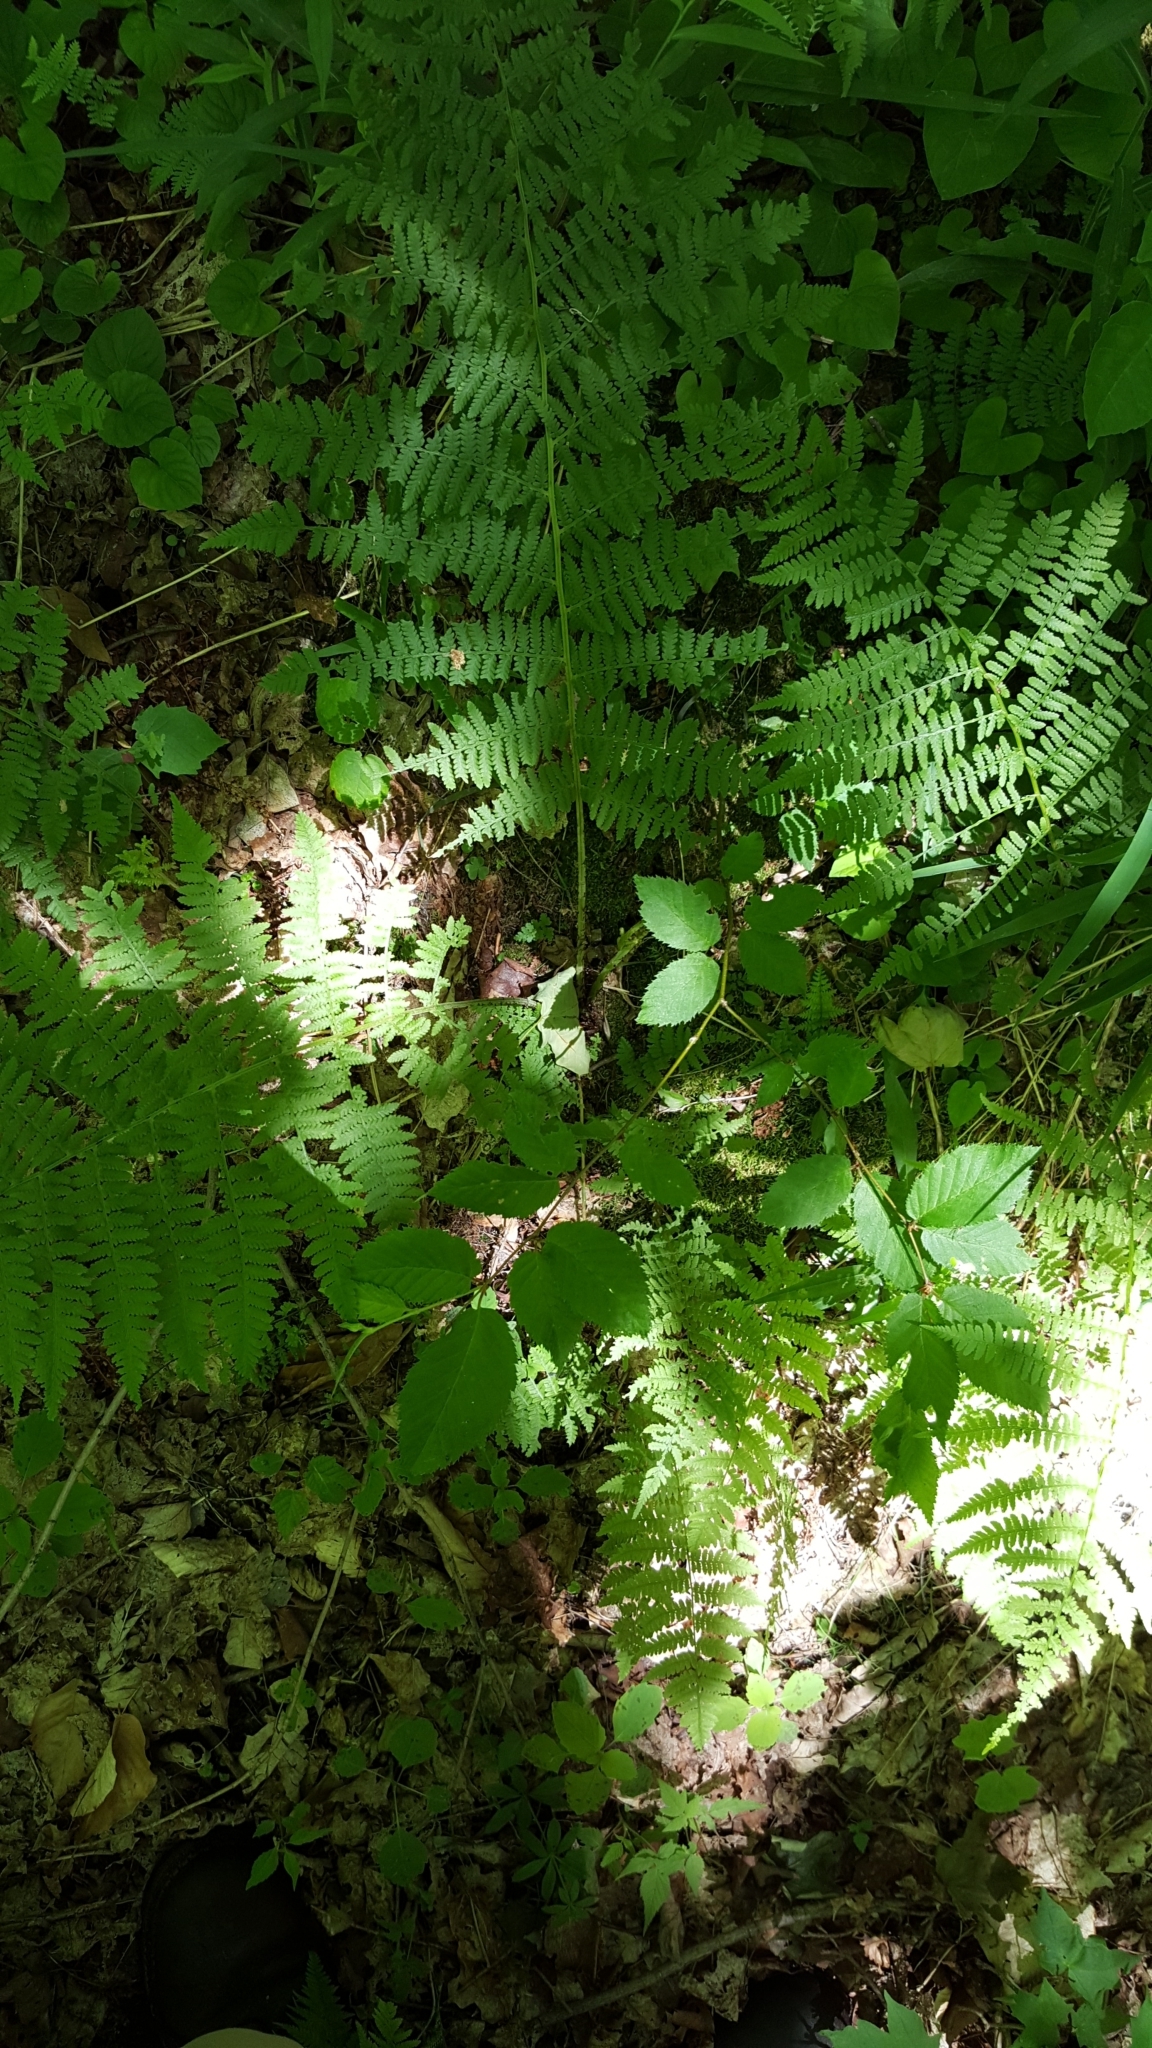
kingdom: Plantae
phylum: Tracheophyta
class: Polypodiopsida
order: Polypodiales
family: Athyriaceae
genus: Athyrium
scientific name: Athyrium angustum
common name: Northern lady fern
